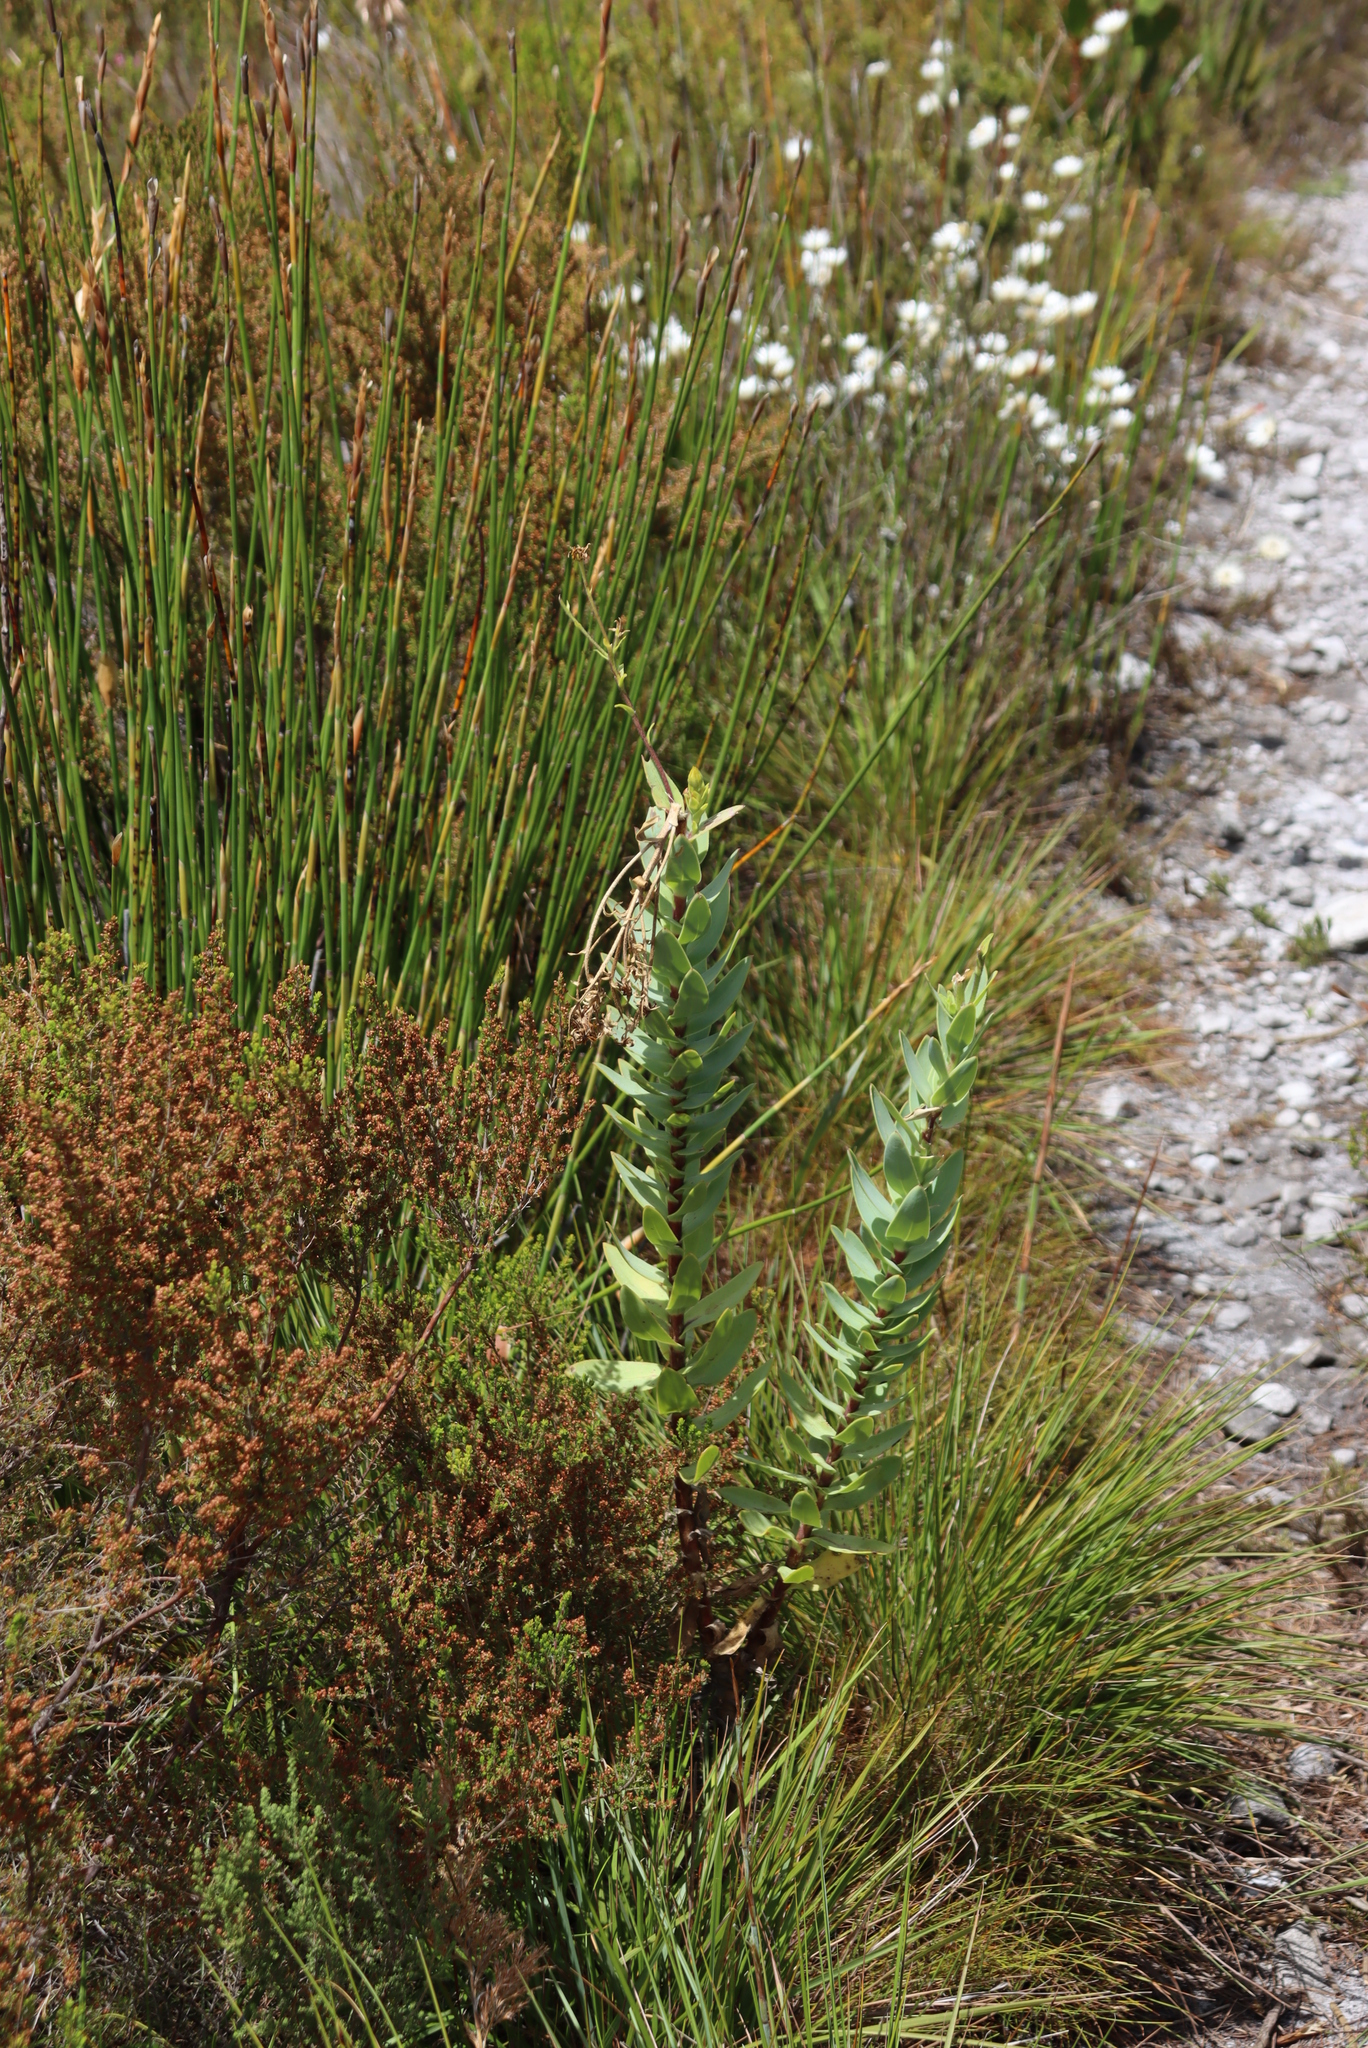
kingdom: Plantae
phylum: Tracheophyta
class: Magnoliopsida
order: Asterales
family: Asteraceae
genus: Osteospermum
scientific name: Osteospermum corymbosum
